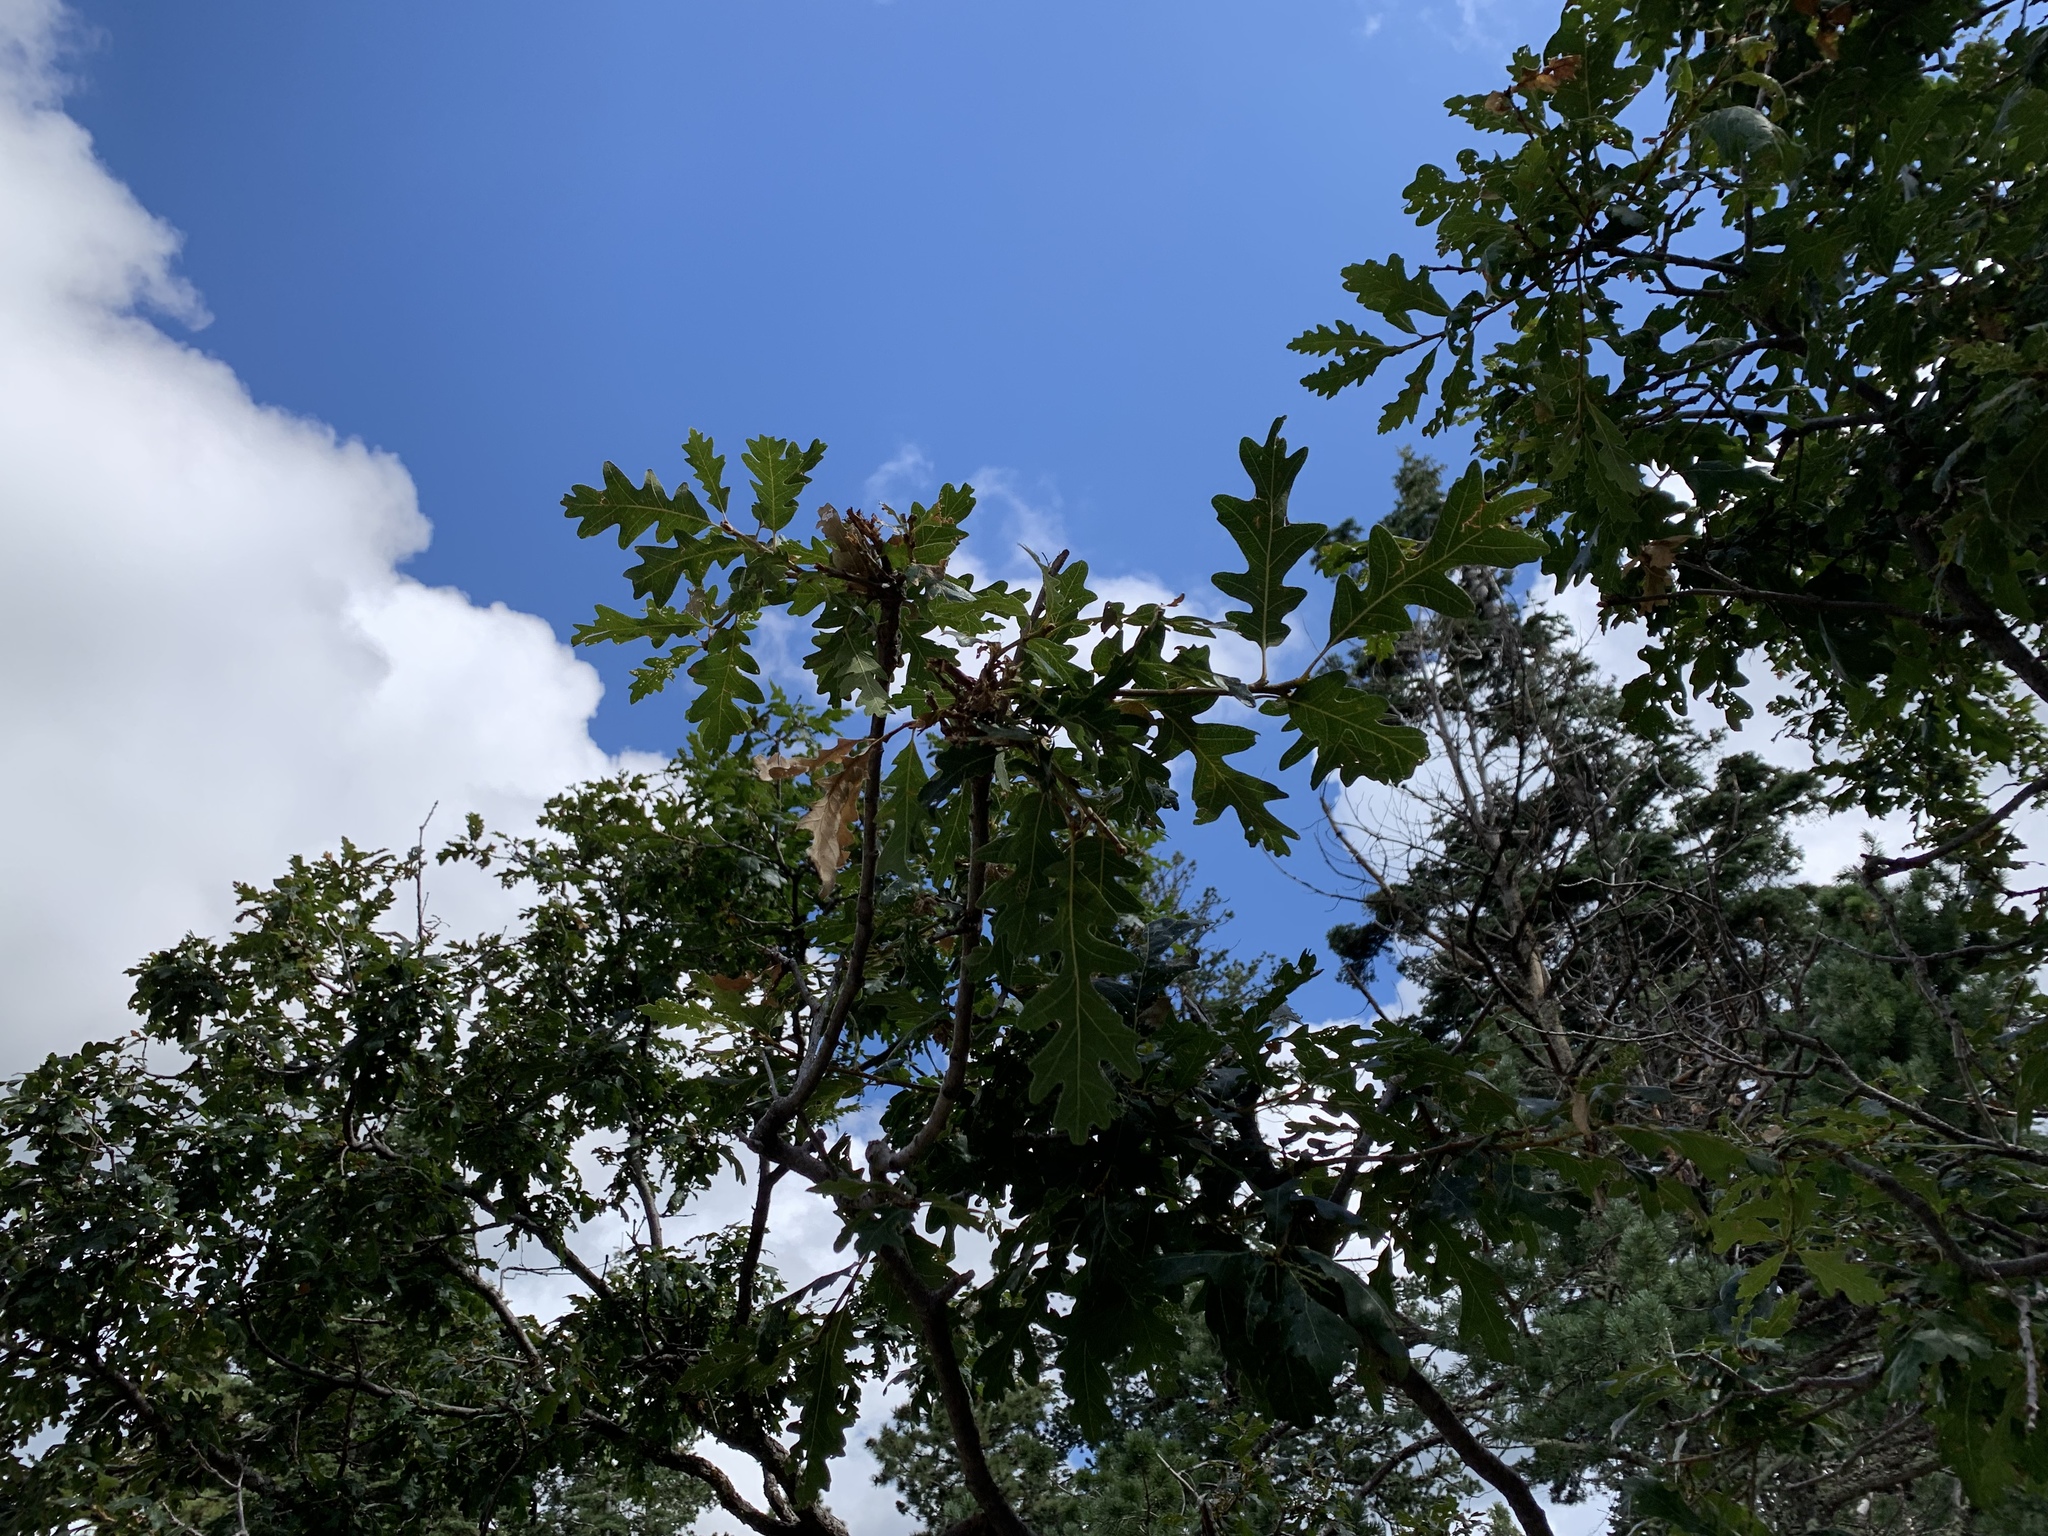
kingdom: Plantae
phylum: Tracheophyta
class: Magnoliopsida
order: Fagales
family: Fagaceae
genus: Quercus
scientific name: Quercus gambelii
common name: Gambel oak
